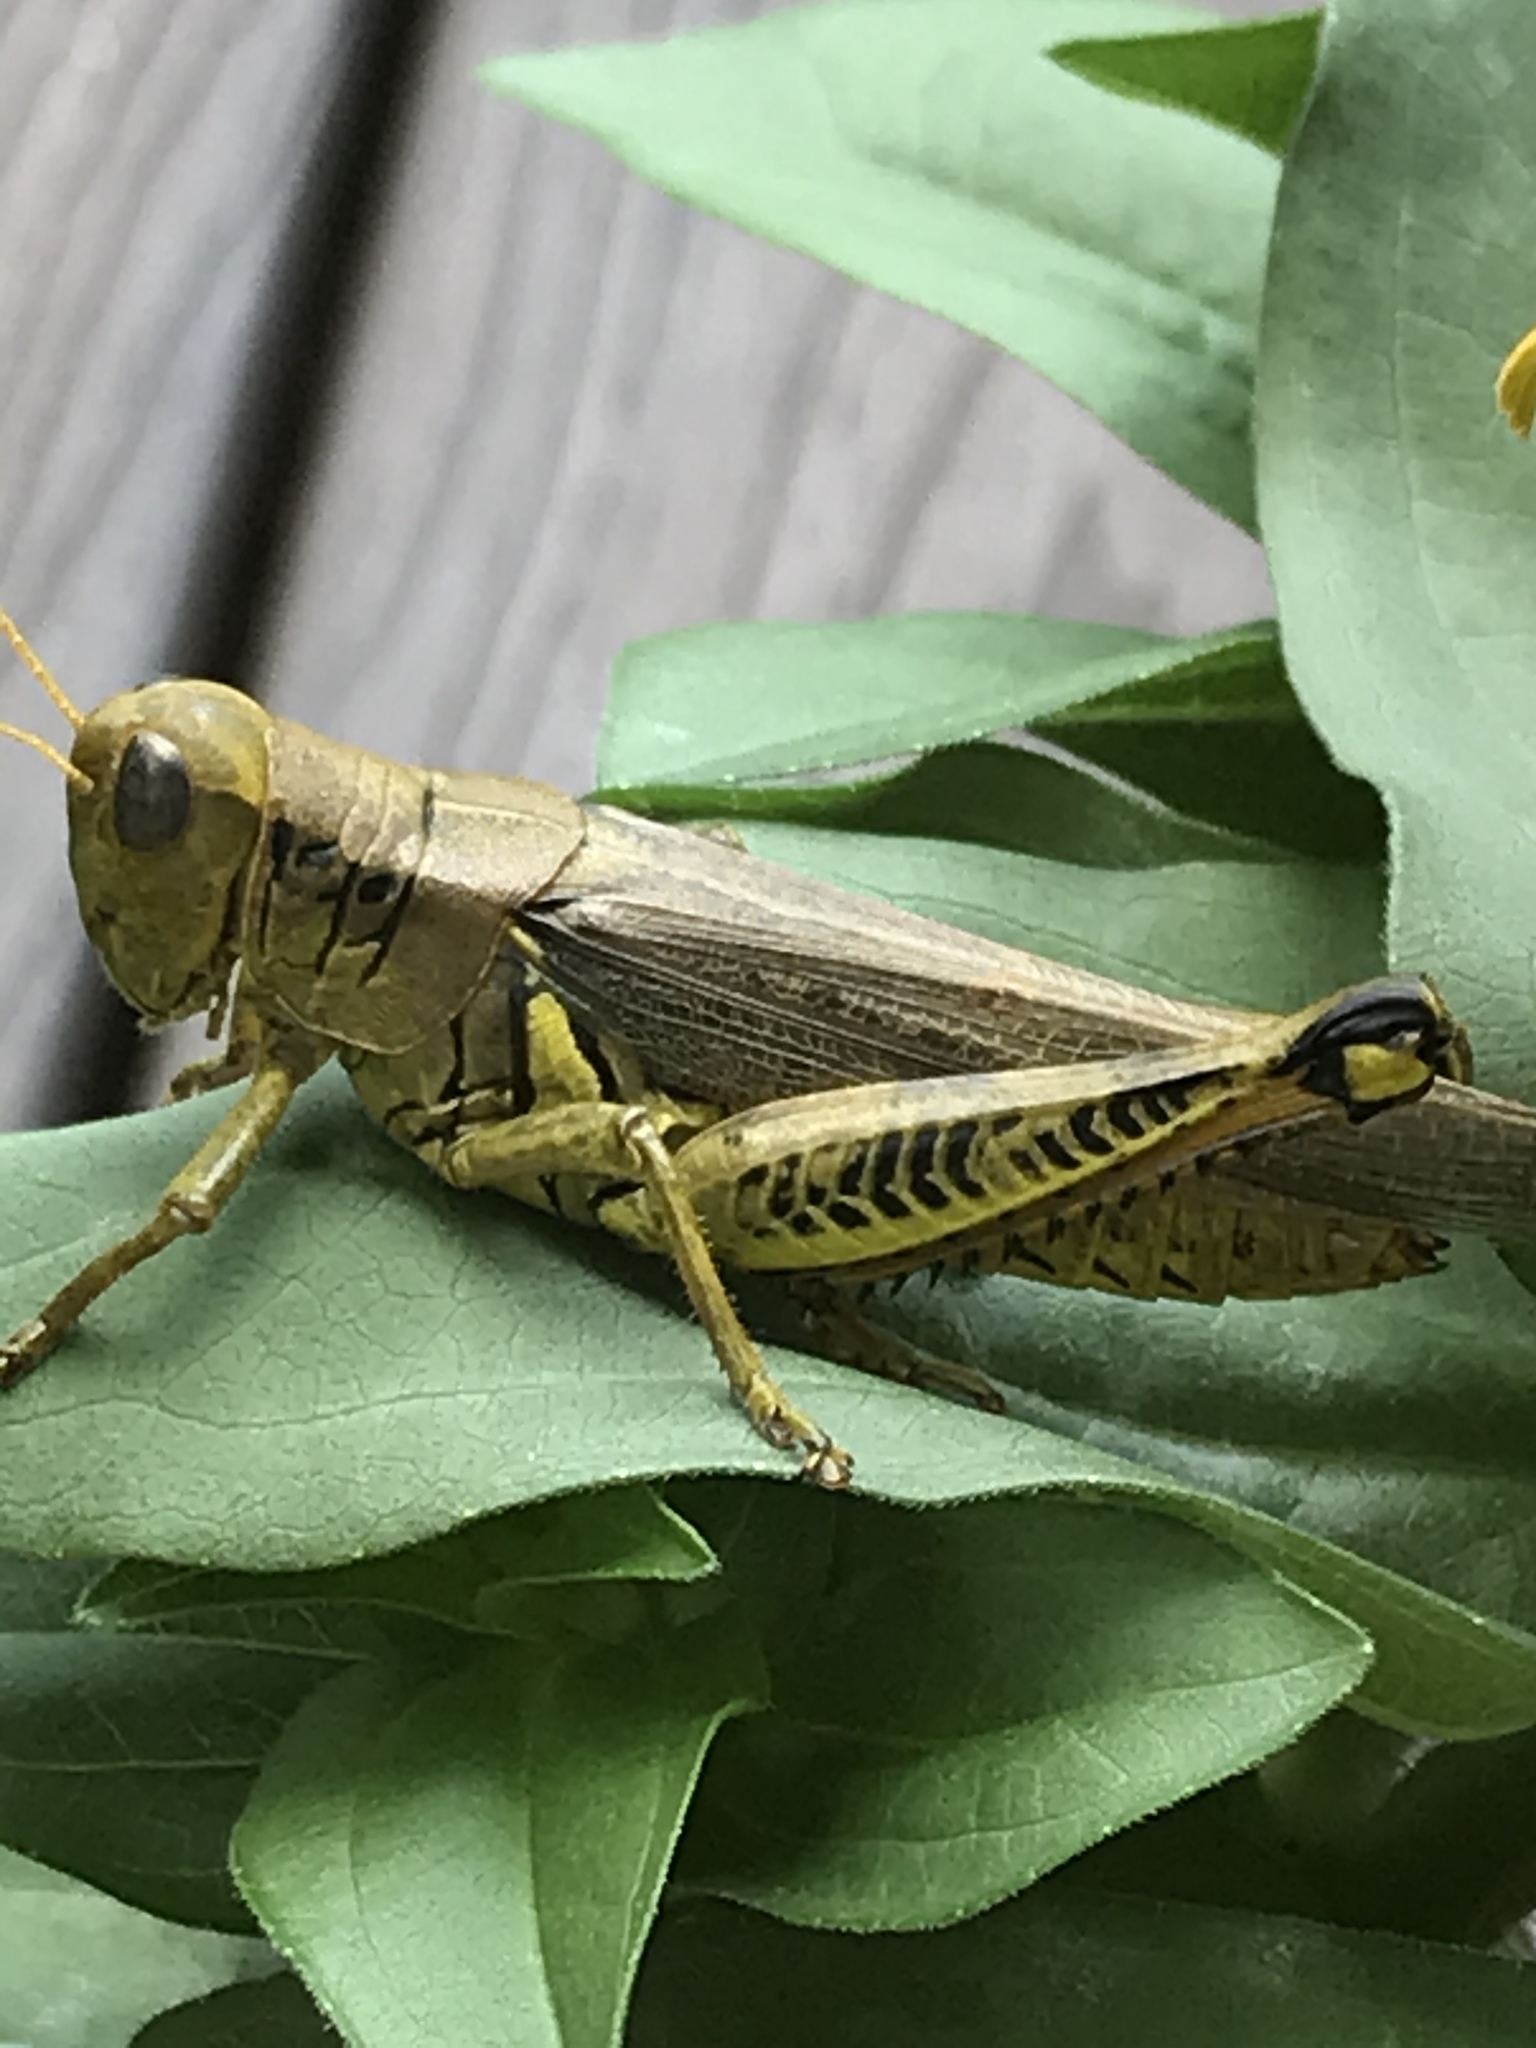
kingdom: Animalia
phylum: Arthropoda
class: Insecta
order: Orthoptera
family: Acrididae
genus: Melanoplus
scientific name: Melanoplus differentialis
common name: Differential grasshopper
